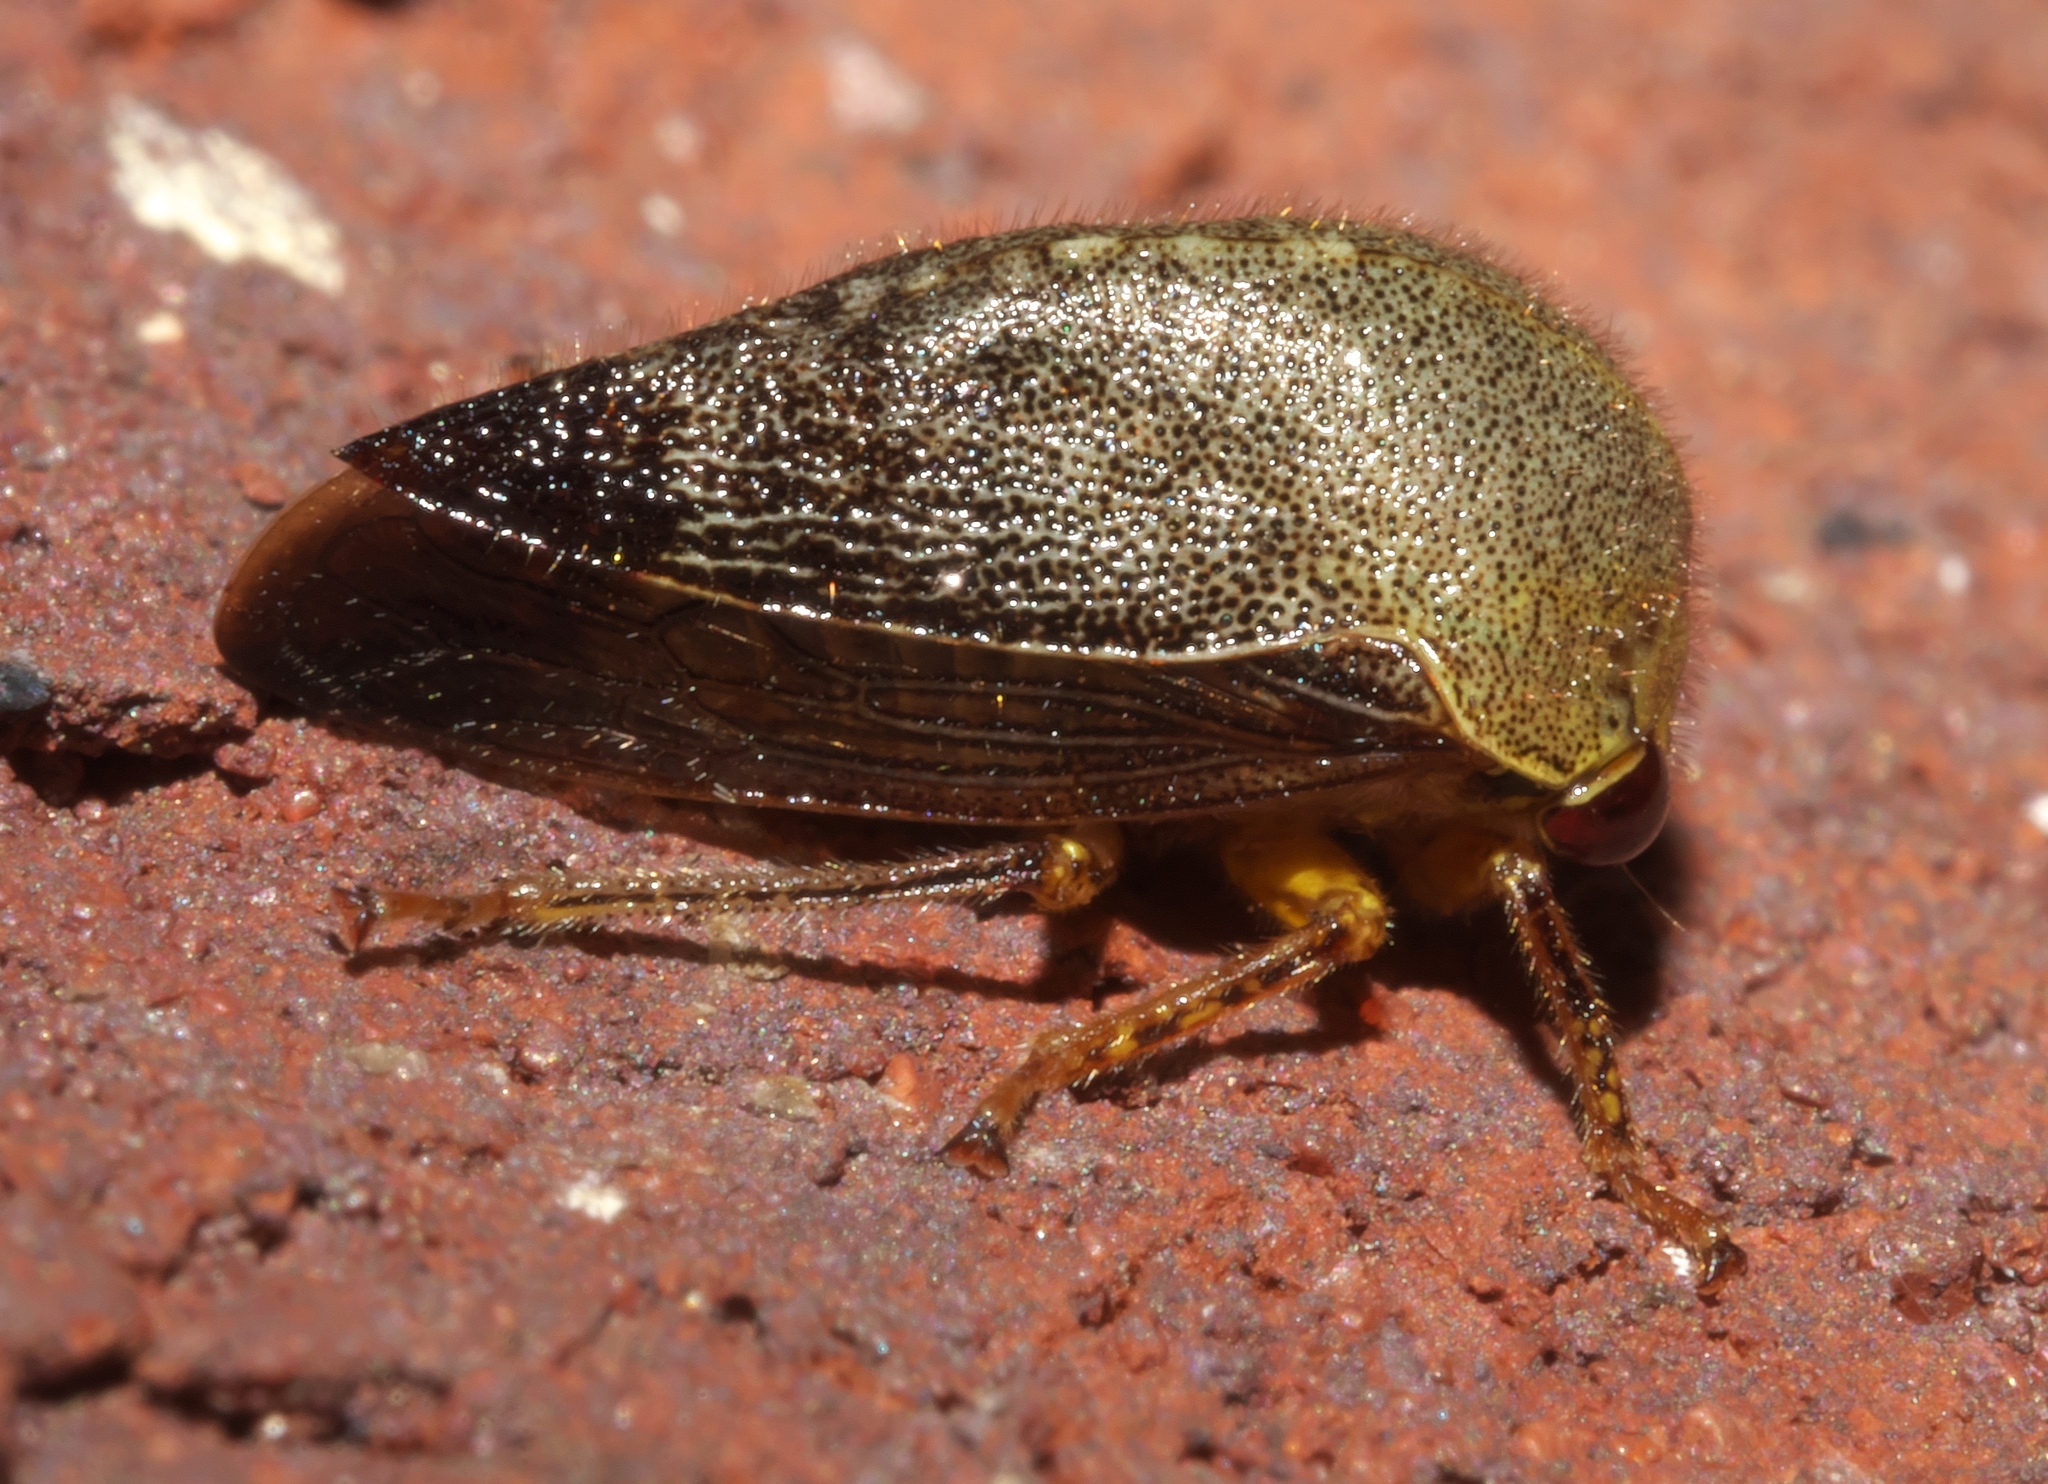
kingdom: Animalia
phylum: Arthropoda
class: Insecta
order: Hemiptera
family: Membracidae
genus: Carynota
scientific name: Carynota mera
